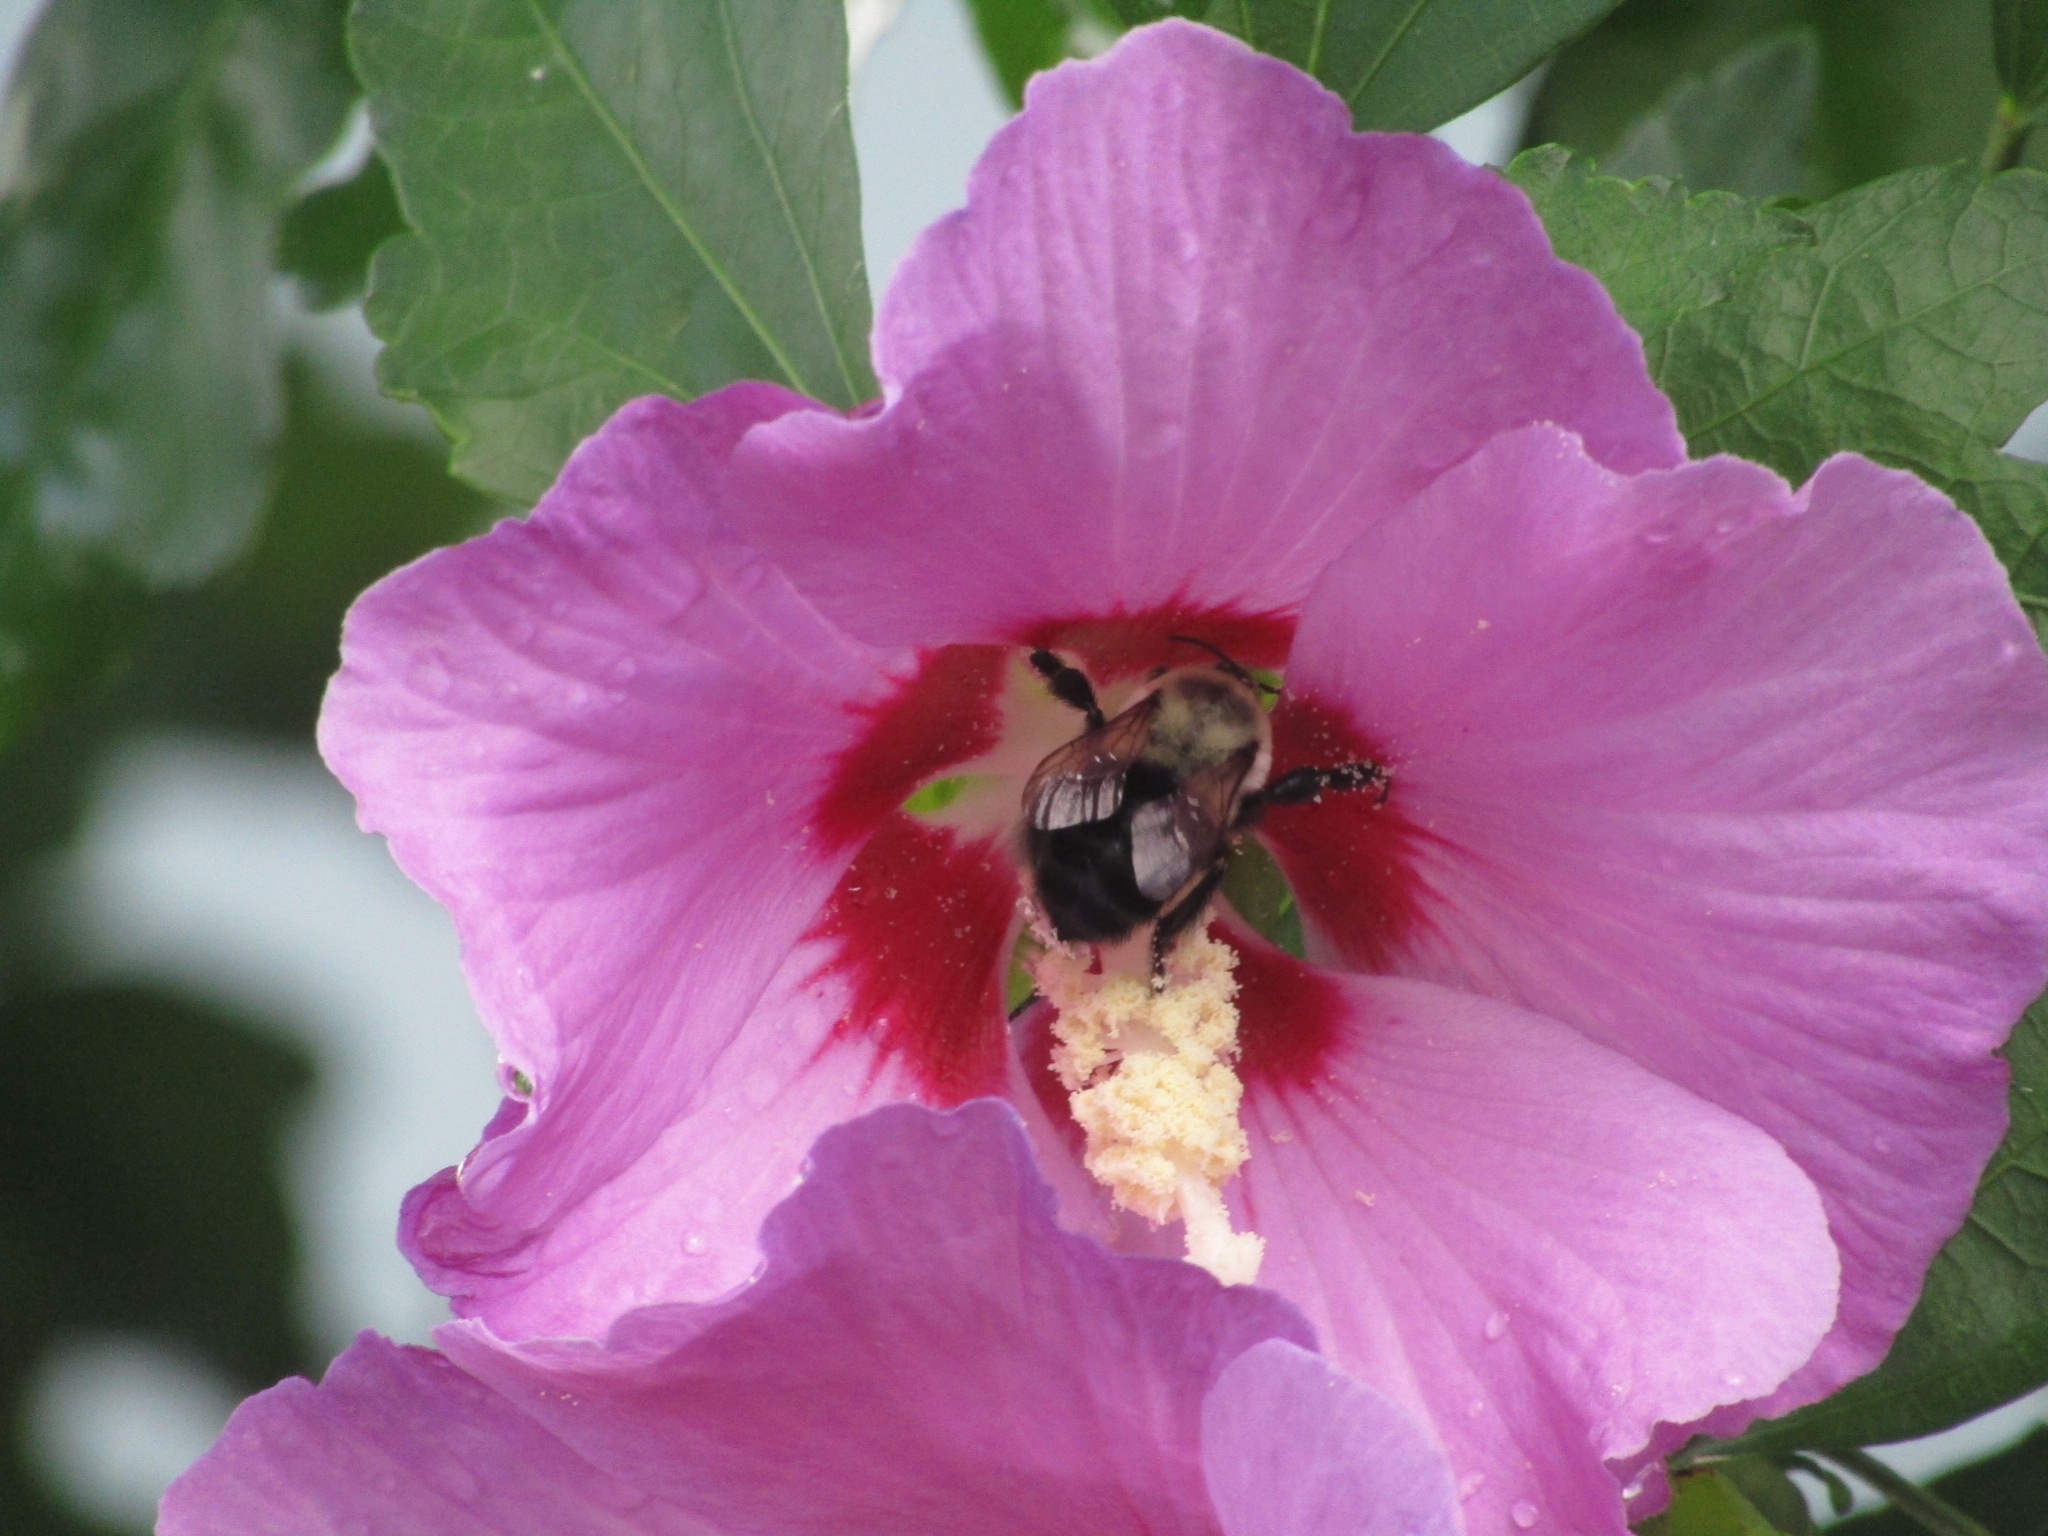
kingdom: Animalia
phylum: Arthropoda
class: Insecta
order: Hymenoptera
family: Apidae
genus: Bombus
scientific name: Bombus impatiens
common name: Common eastern bumble bee
